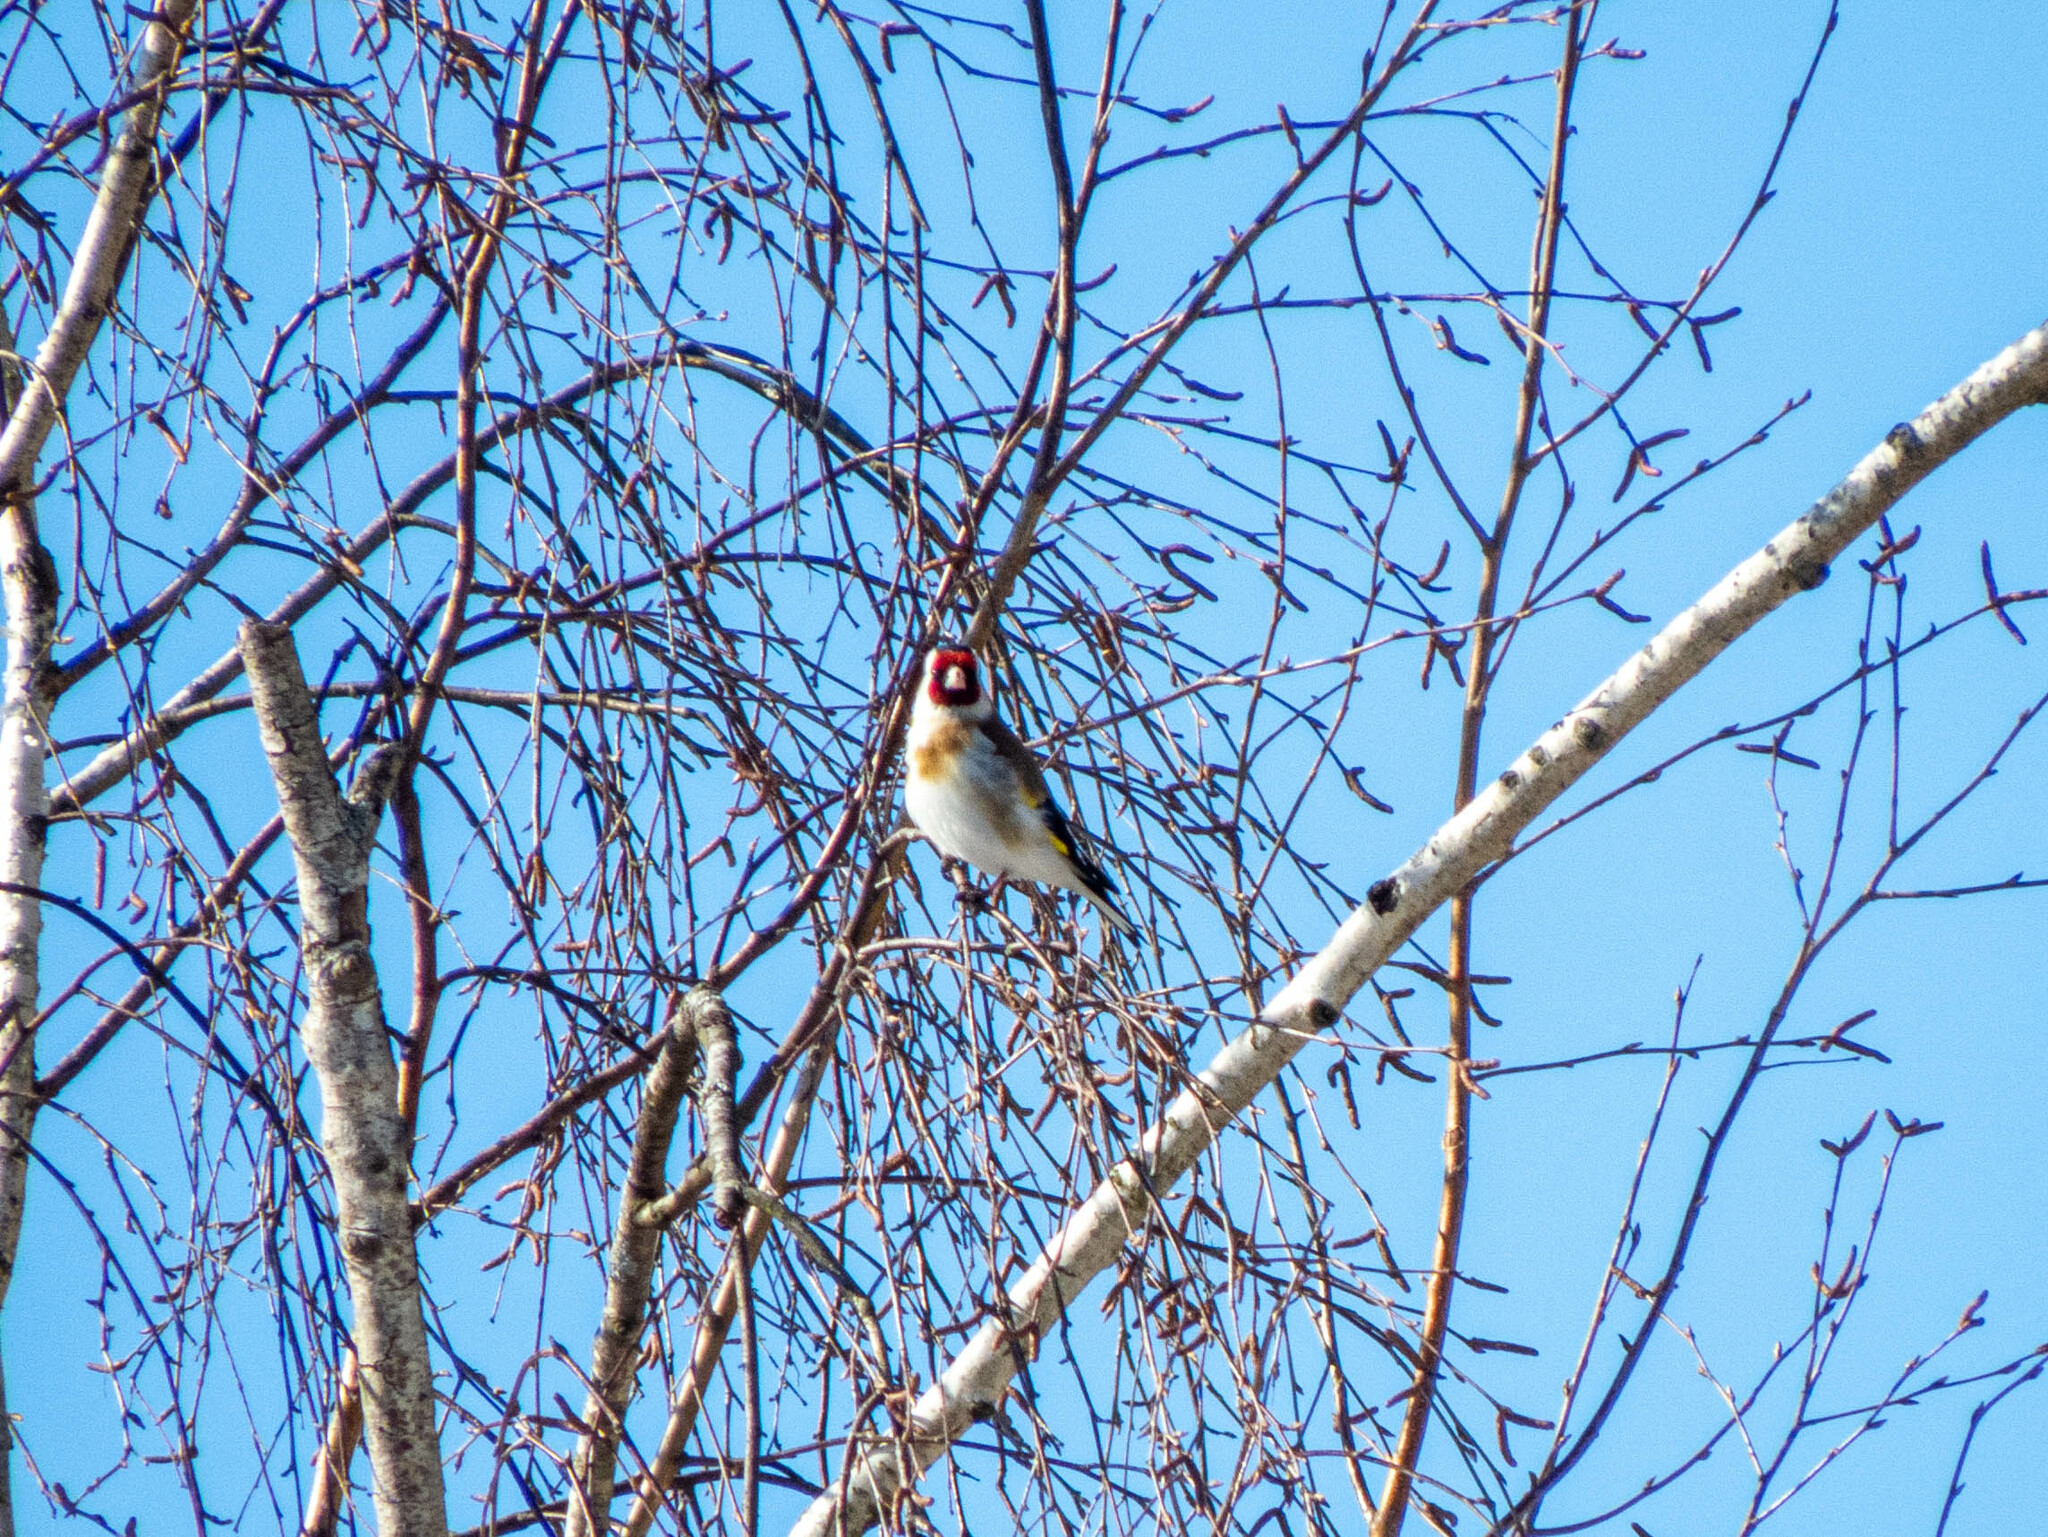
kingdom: Animalia
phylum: Chordata
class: Aves
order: Passeriformes
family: Fringillidae
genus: Carduelis
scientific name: Carduelis carduelis
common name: European goldfinch
